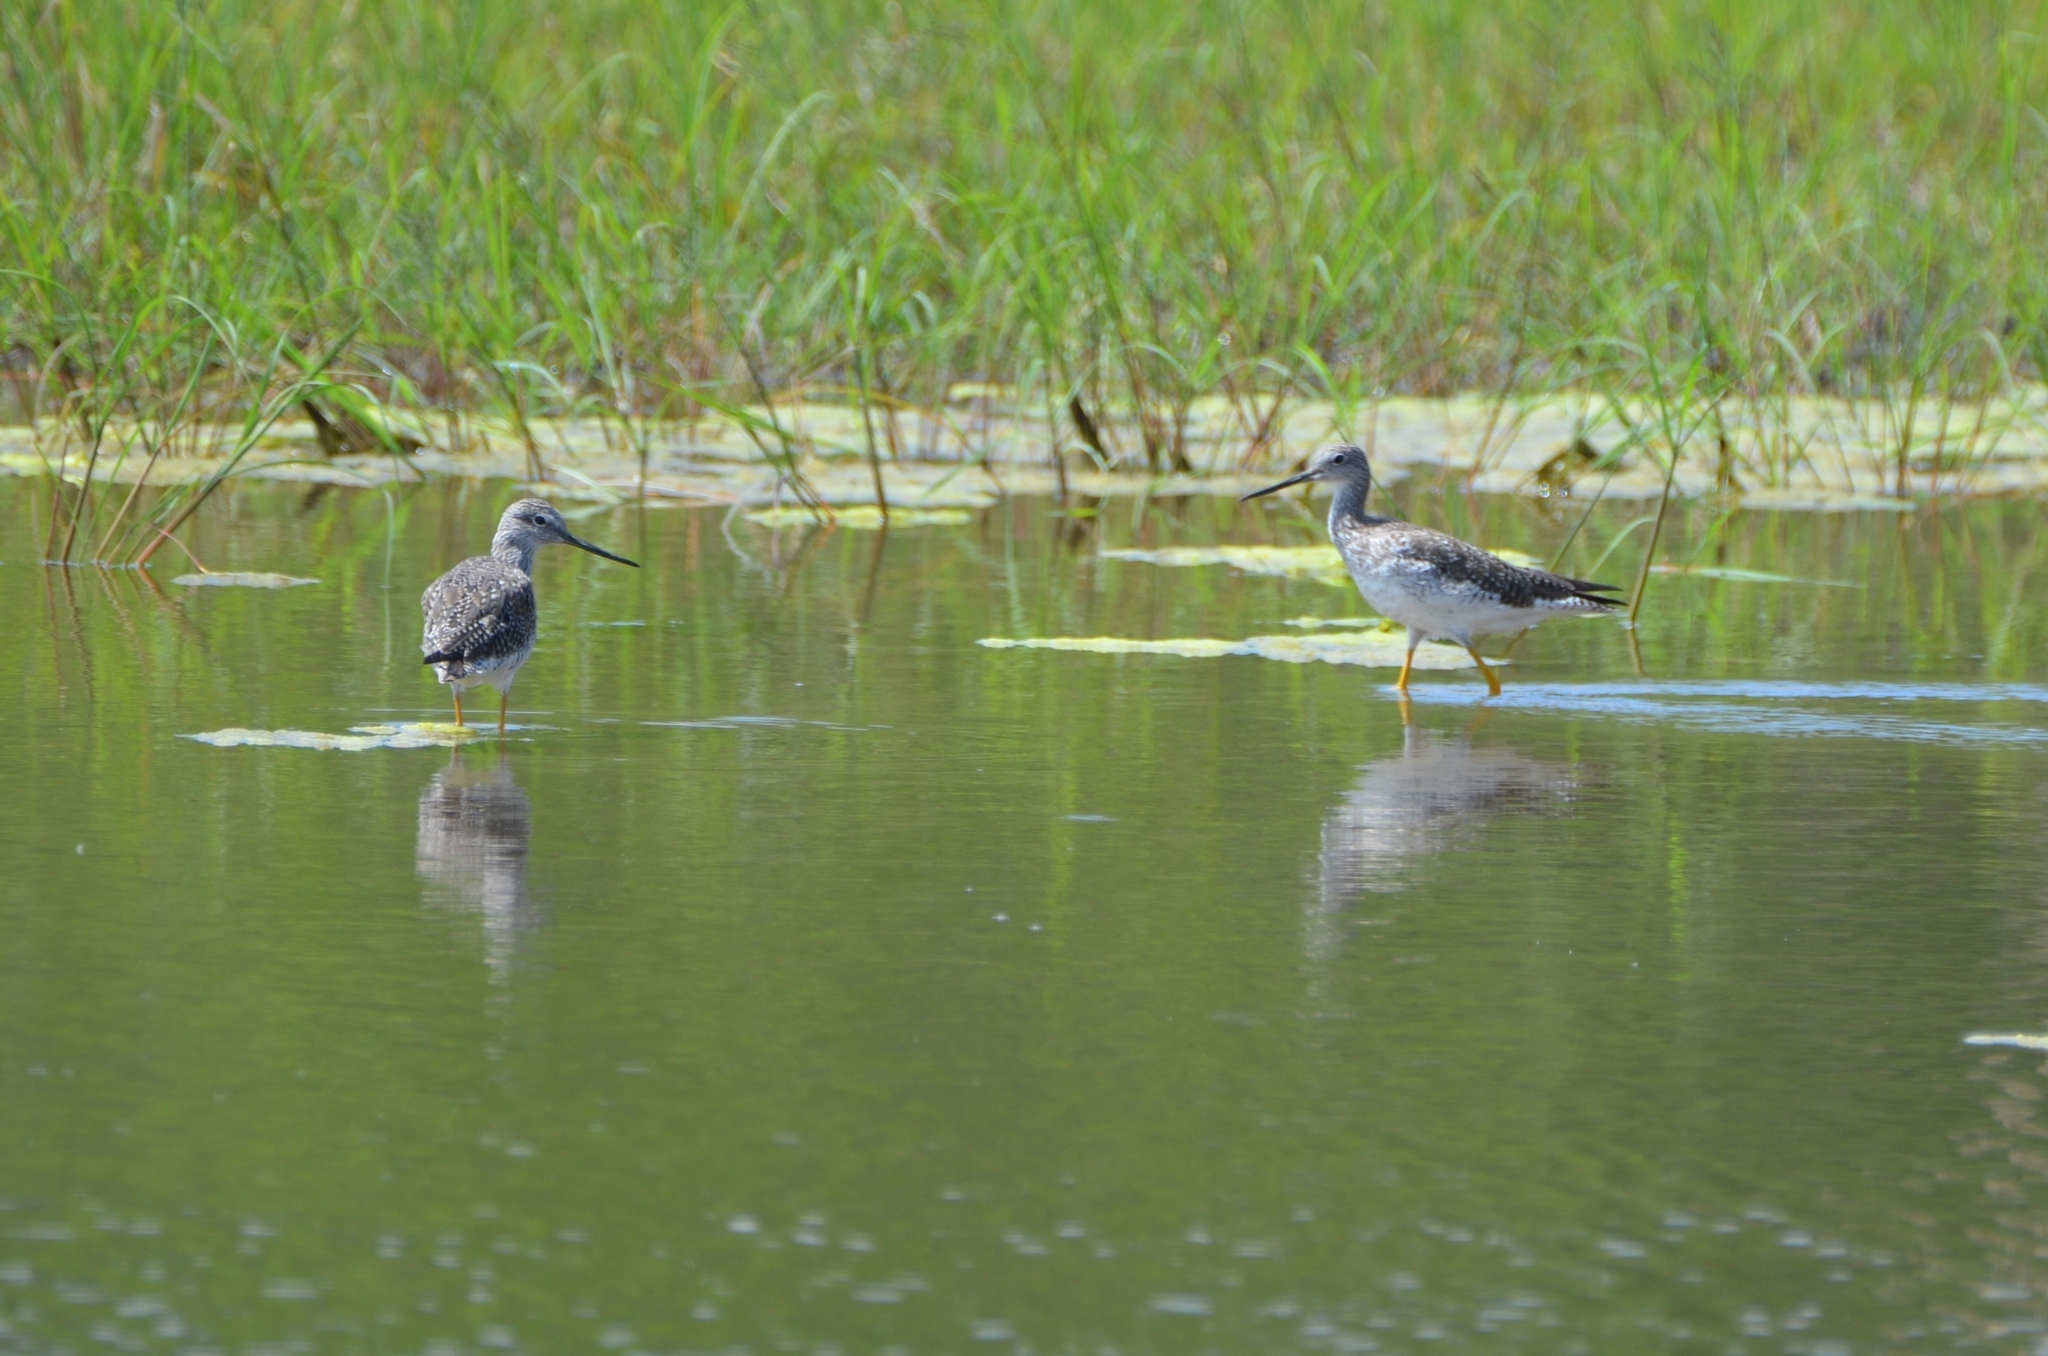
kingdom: Animalia
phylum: Chordata
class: Aves
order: Charadriiformes
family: Scolopacidae
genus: Tringa
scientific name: Tringa melanoleuca
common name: Greater yellowlegs
